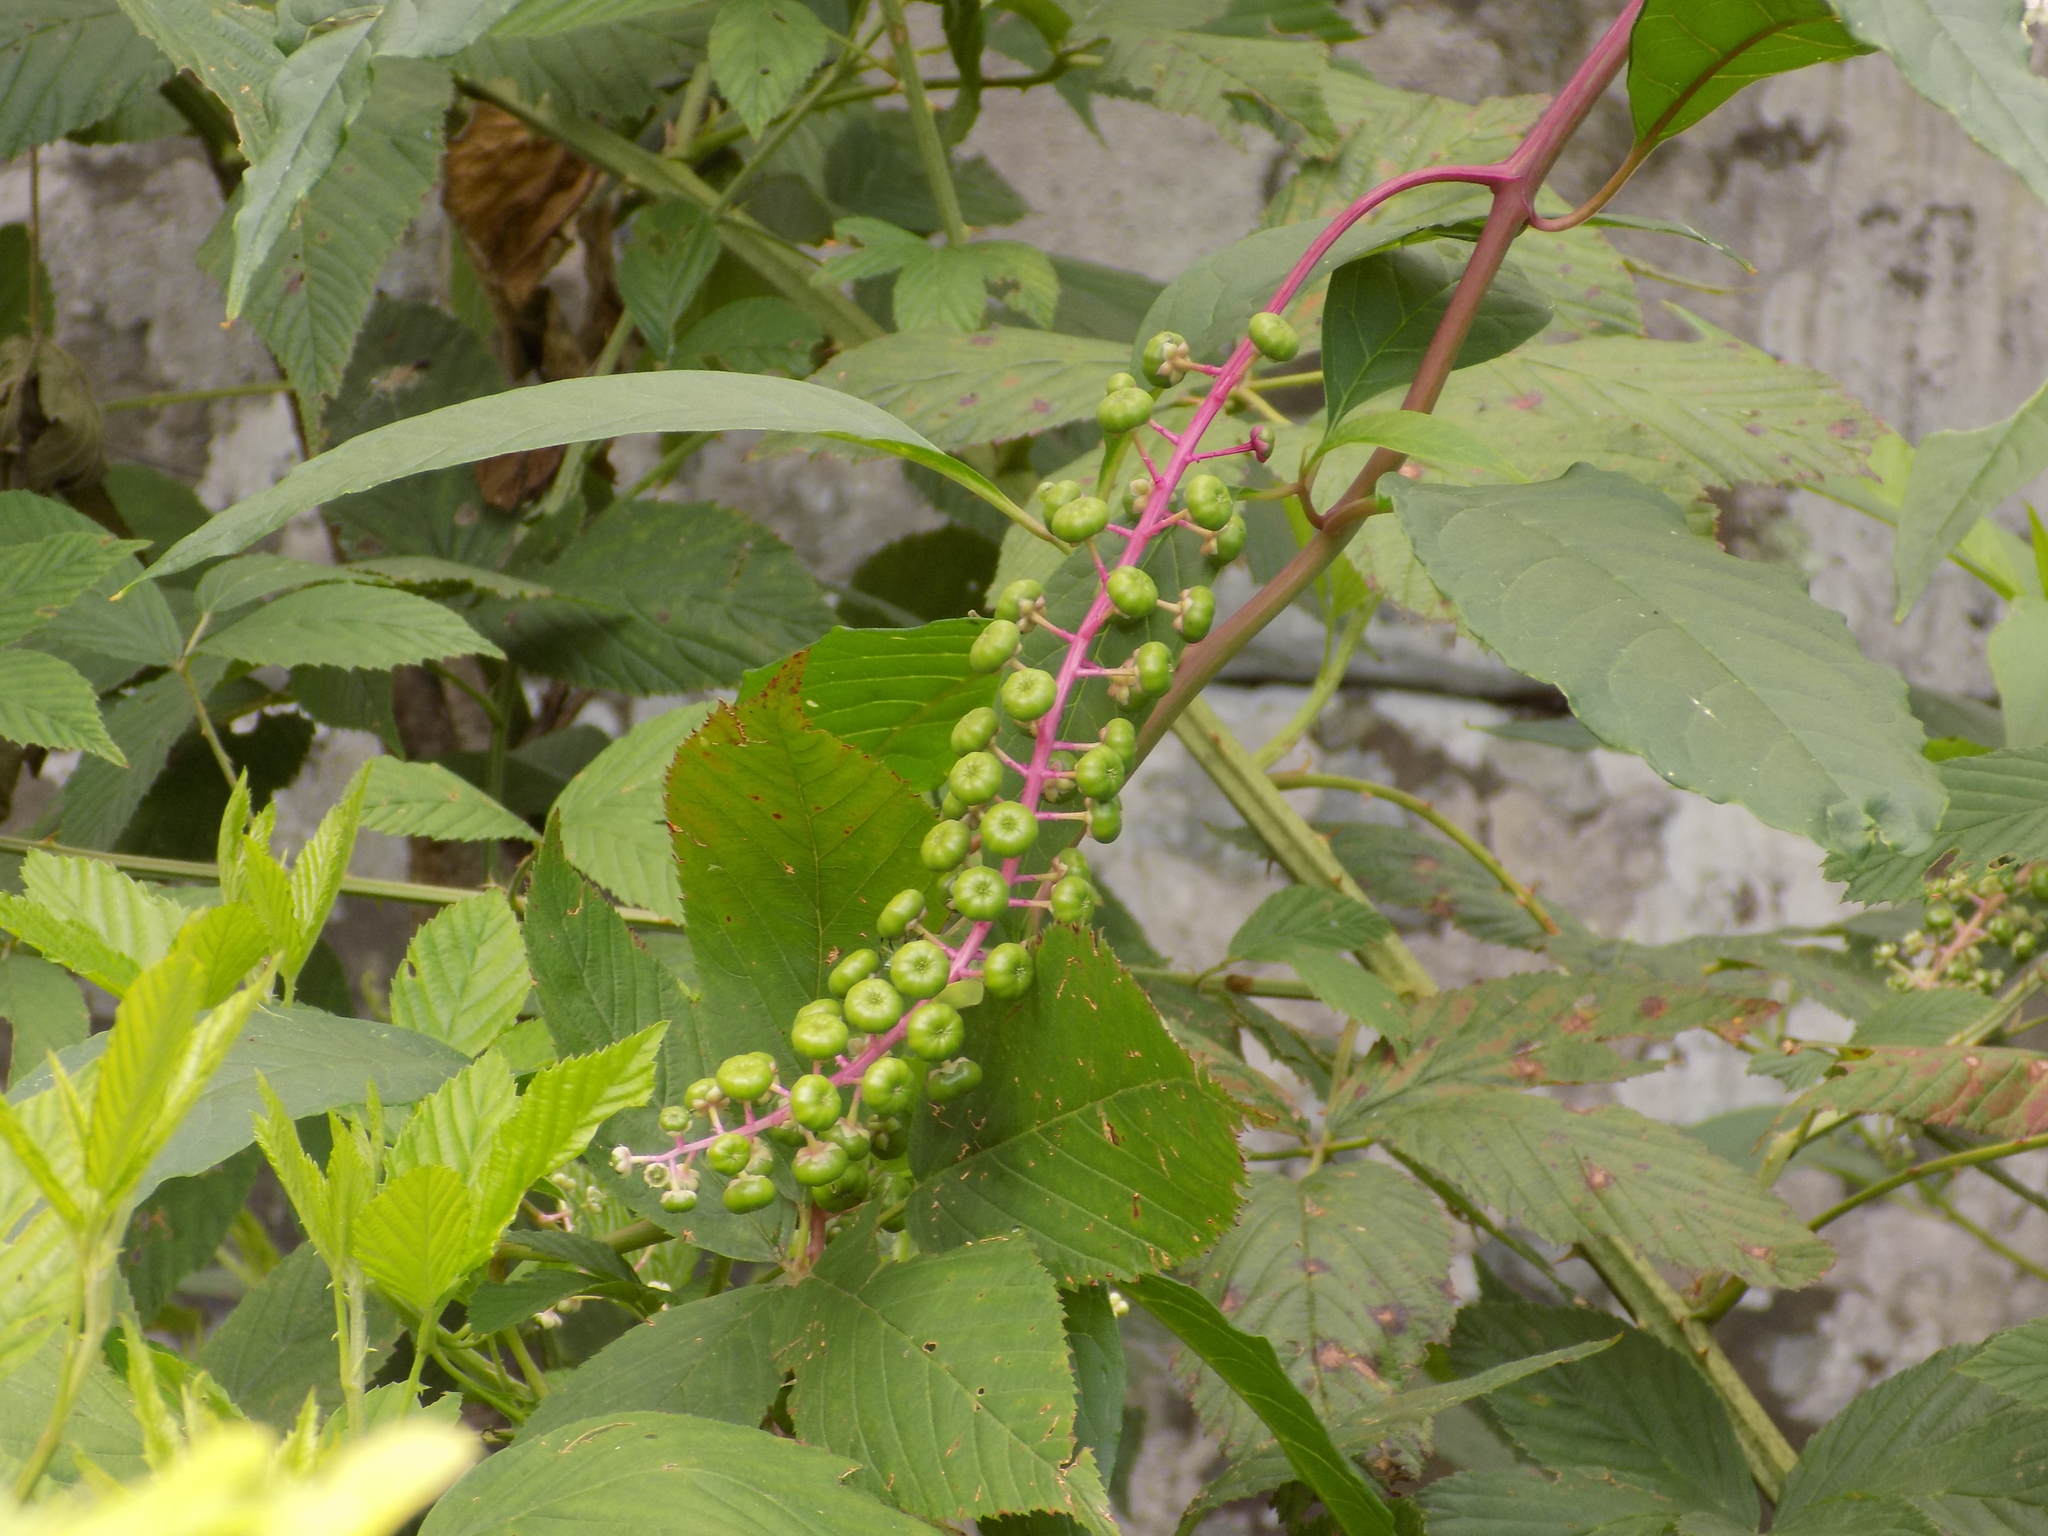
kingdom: Plantae
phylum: Tracheophyta
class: Magnoliopsida
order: Caryophyllales
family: Phytolaccaceae
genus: Phytolacca
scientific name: Phytolacca americana
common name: American pokeweed
